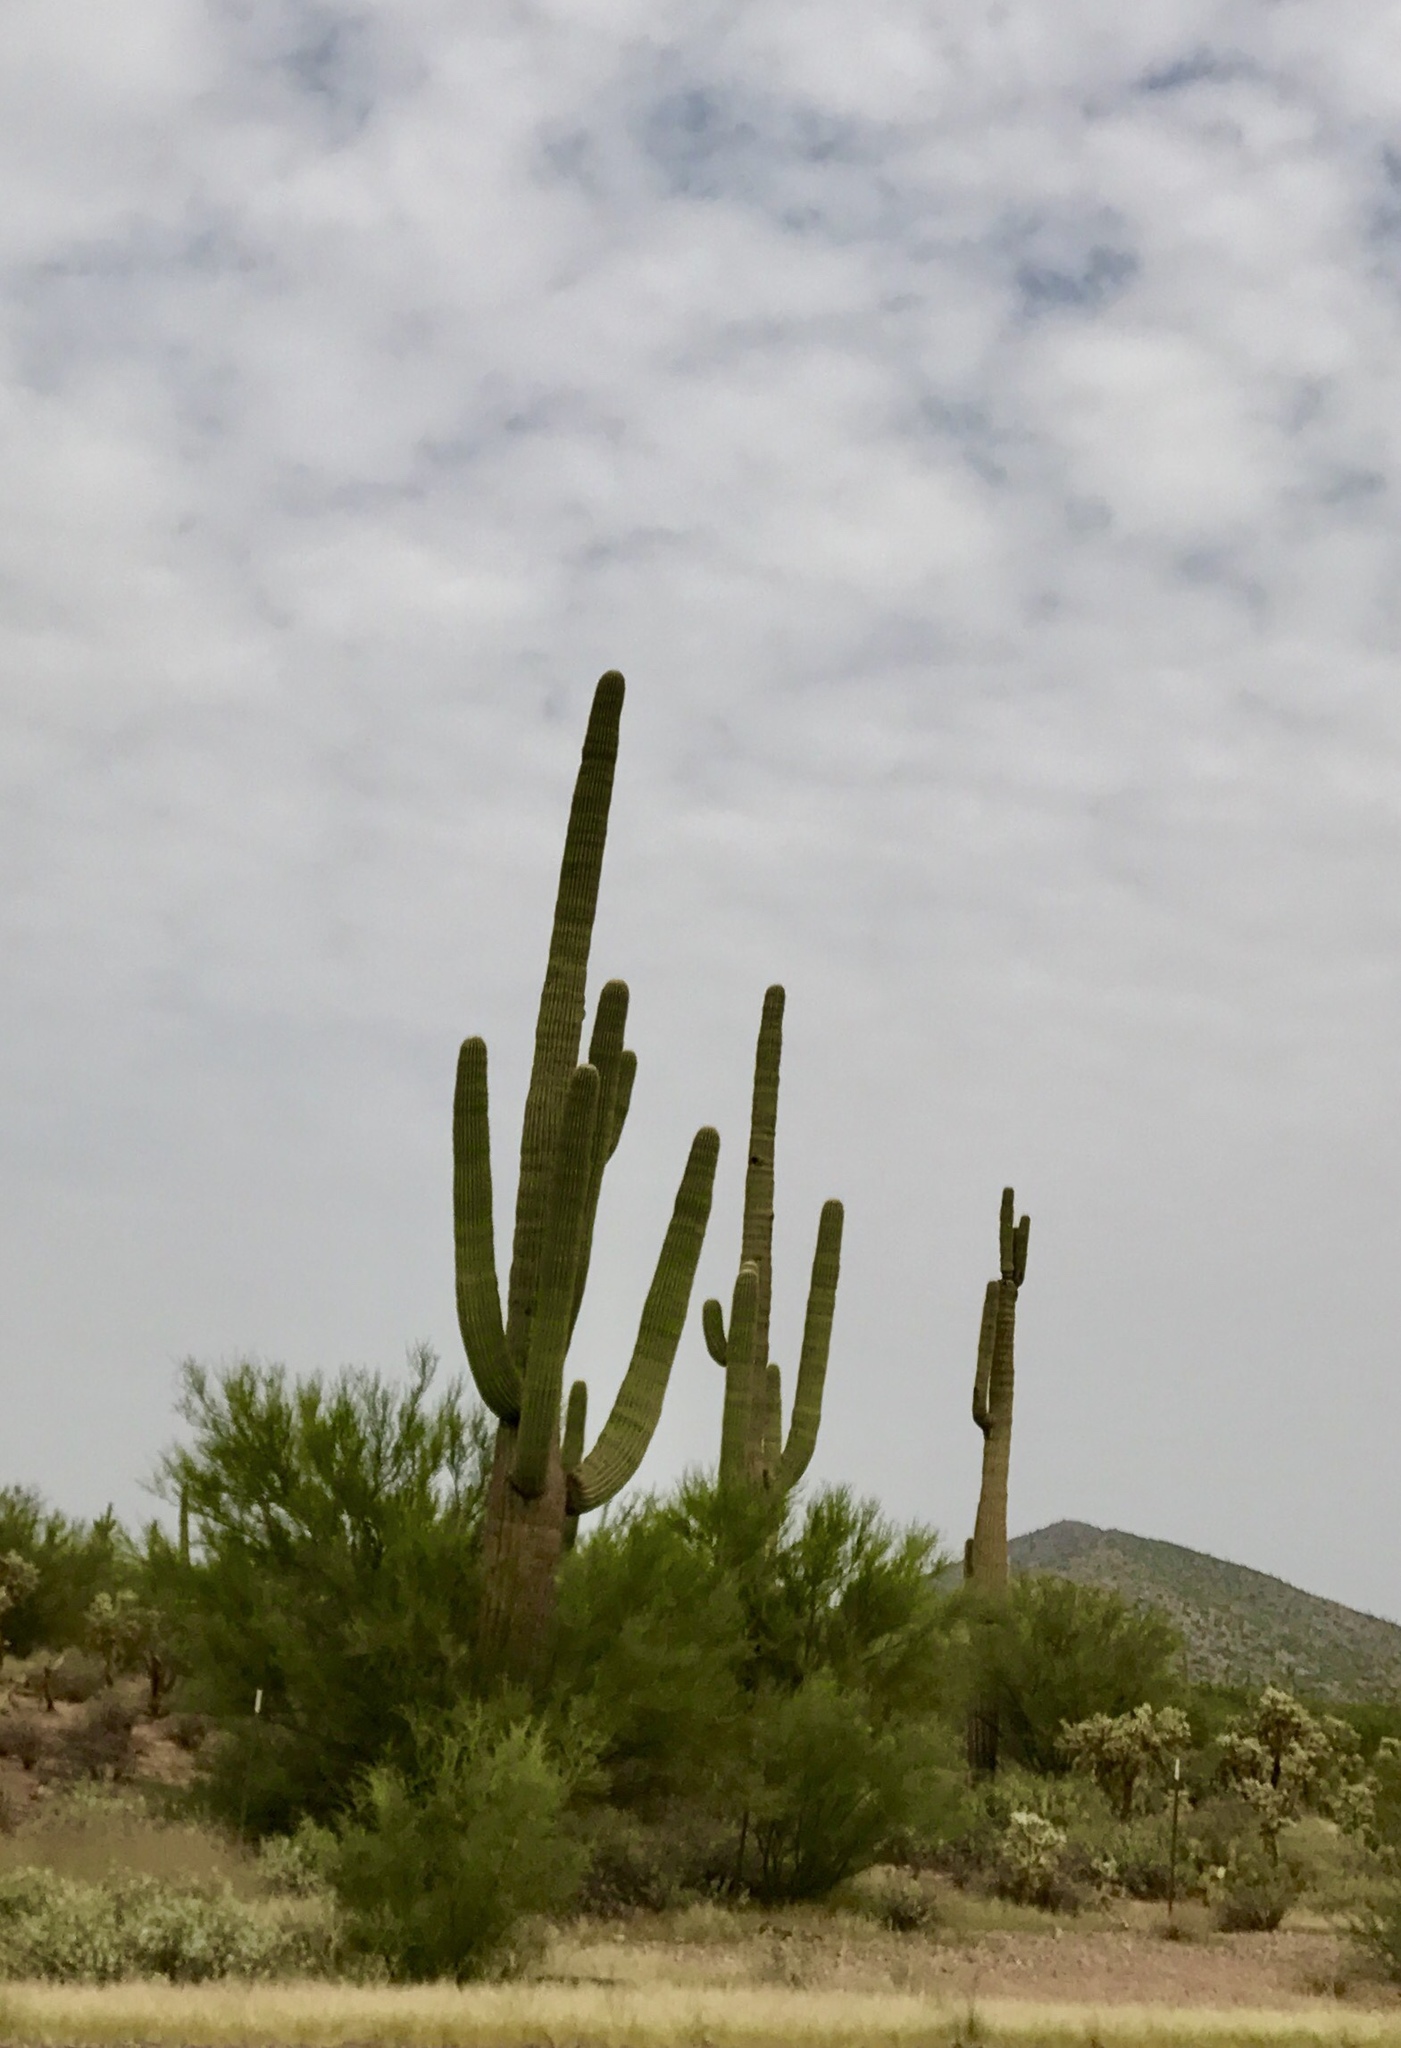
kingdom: Plantae
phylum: Tracheophyta
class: Magnoliopsida
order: Caryophyllales
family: Cactaceae
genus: Carnegiea
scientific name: Carnegiea gigantea
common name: Saguaro
